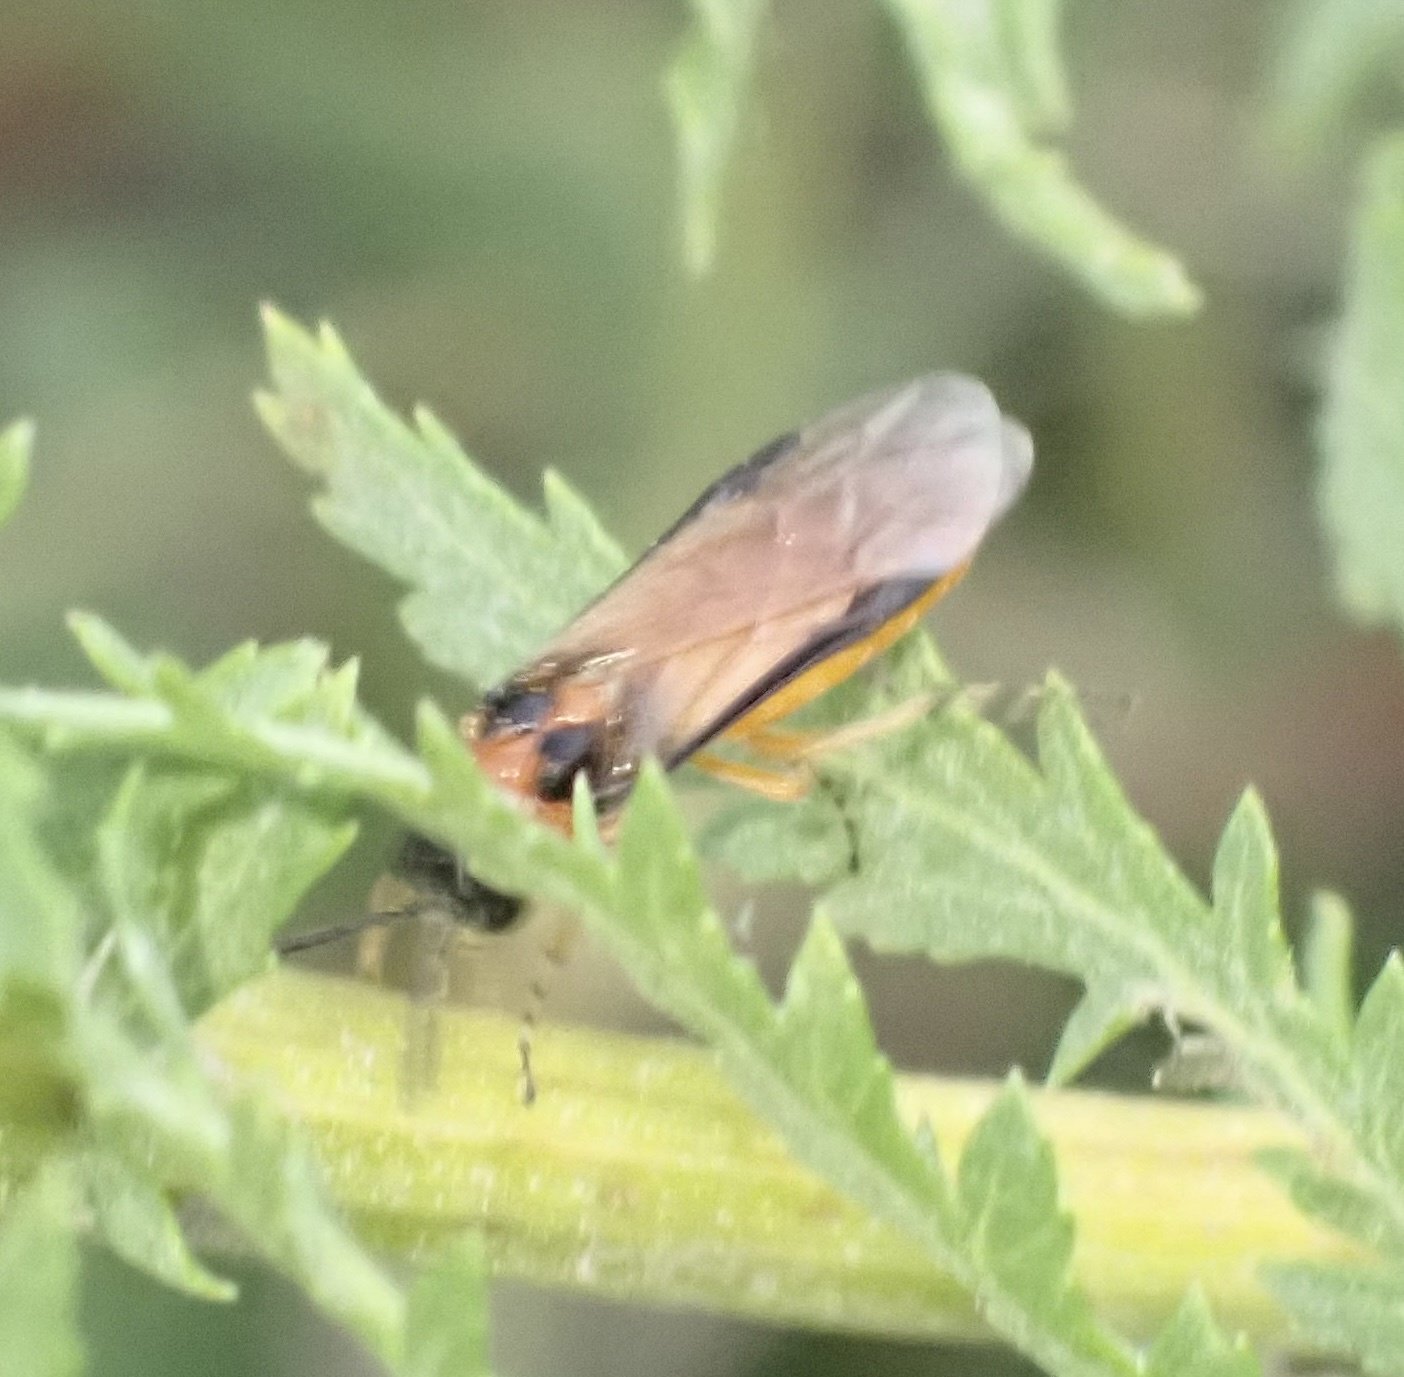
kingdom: Animalia
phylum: Arthropoda
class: Insecta
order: Hymenoptera
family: Tenthredinidae
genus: Athalia
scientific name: Athalia rosae
